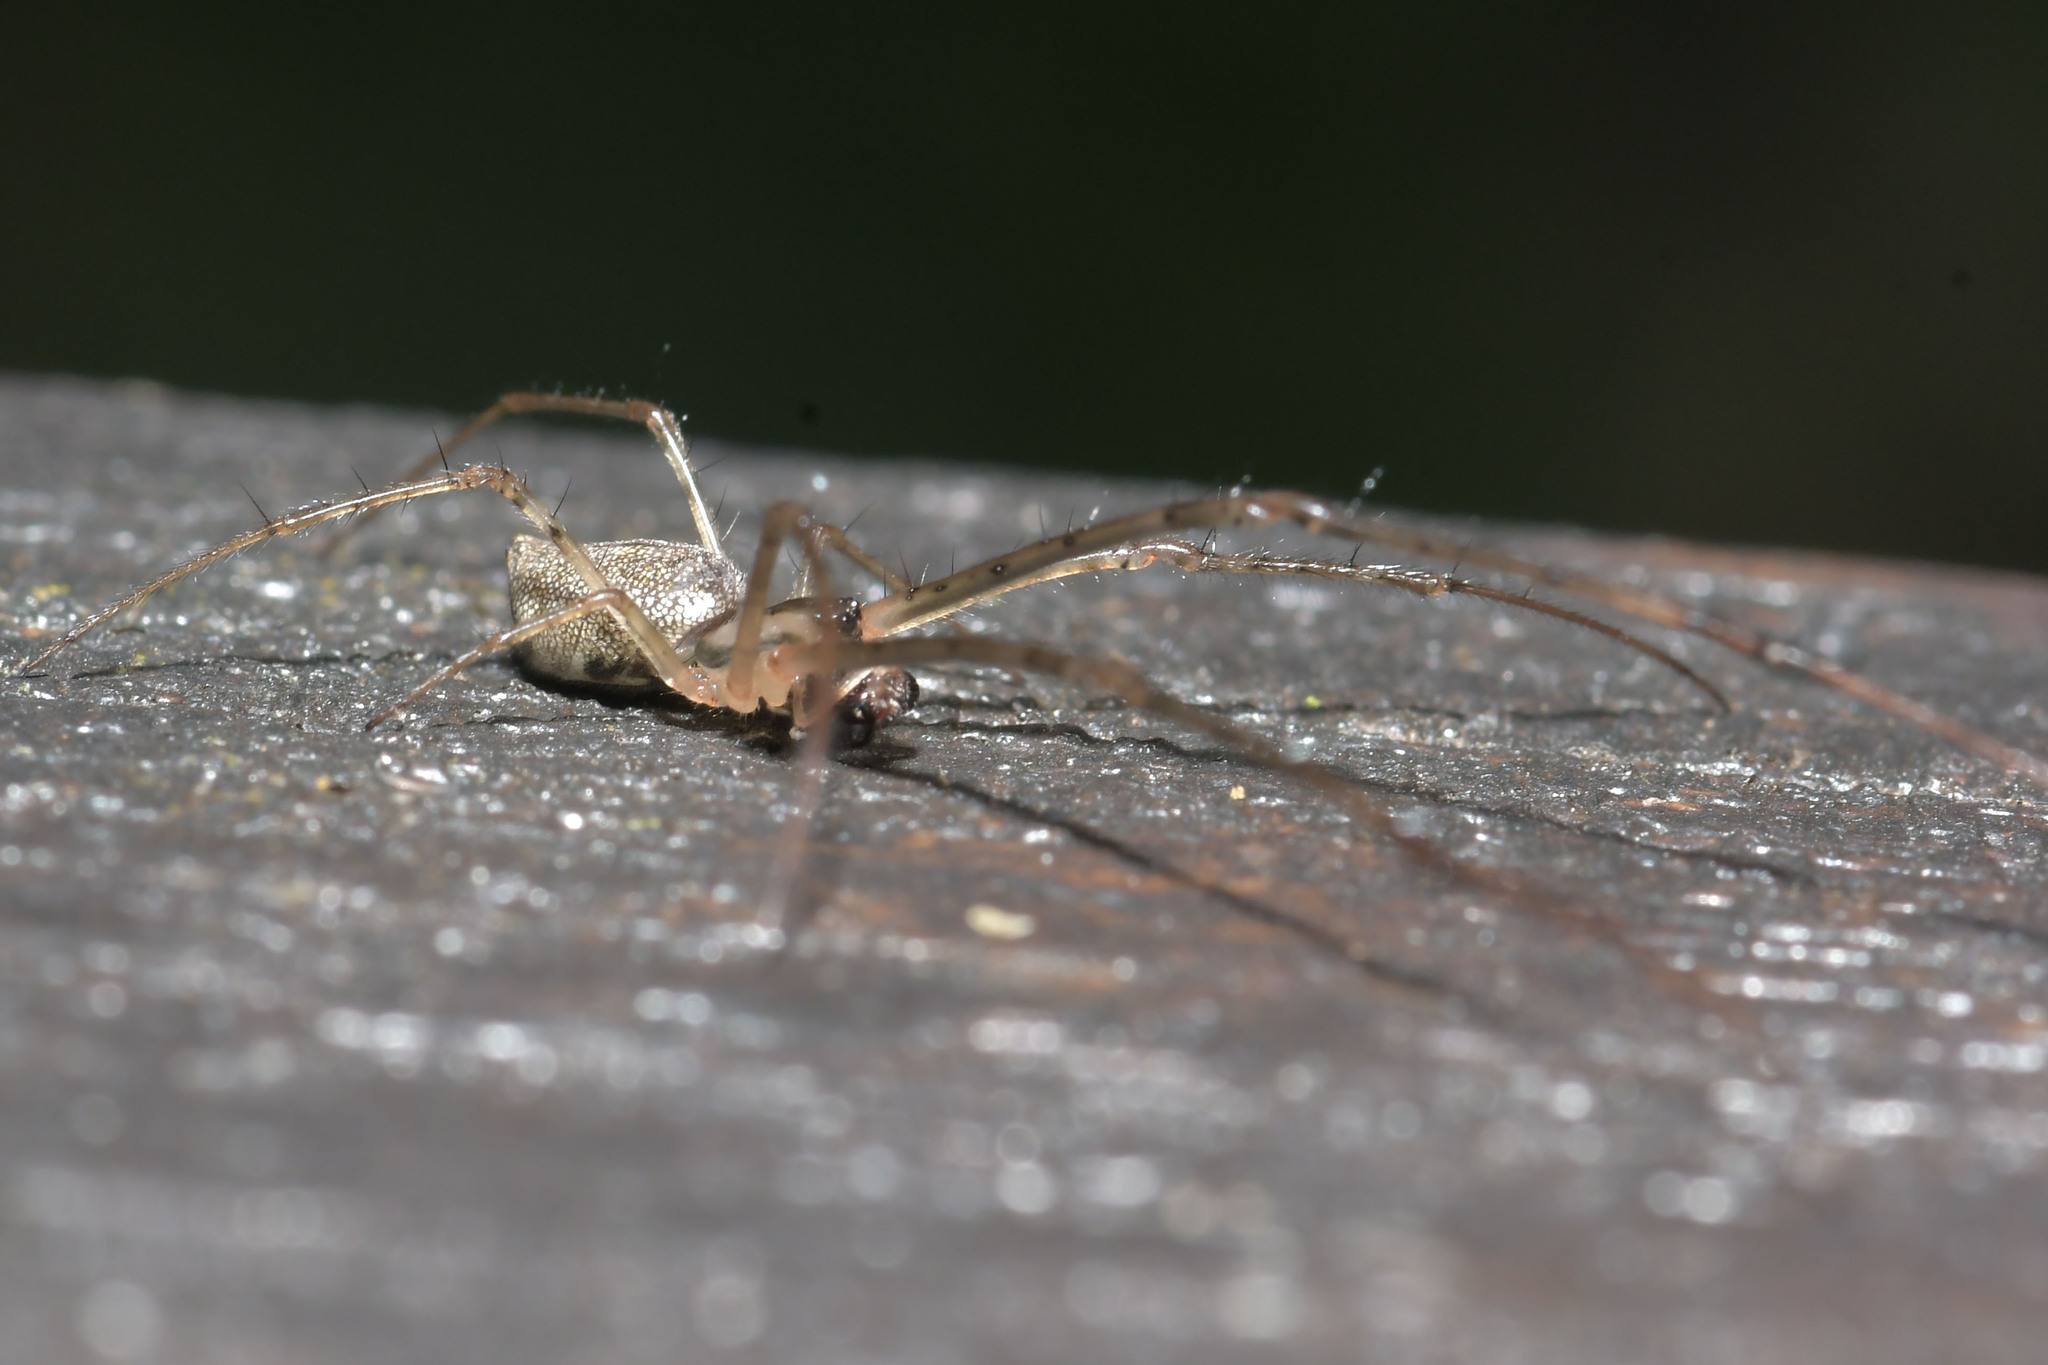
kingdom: Animalia
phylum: Arthropoda
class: Arachnida
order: Araneae
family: Tetragnathidae
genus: Tylorida
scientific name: Tylorida ventralis
